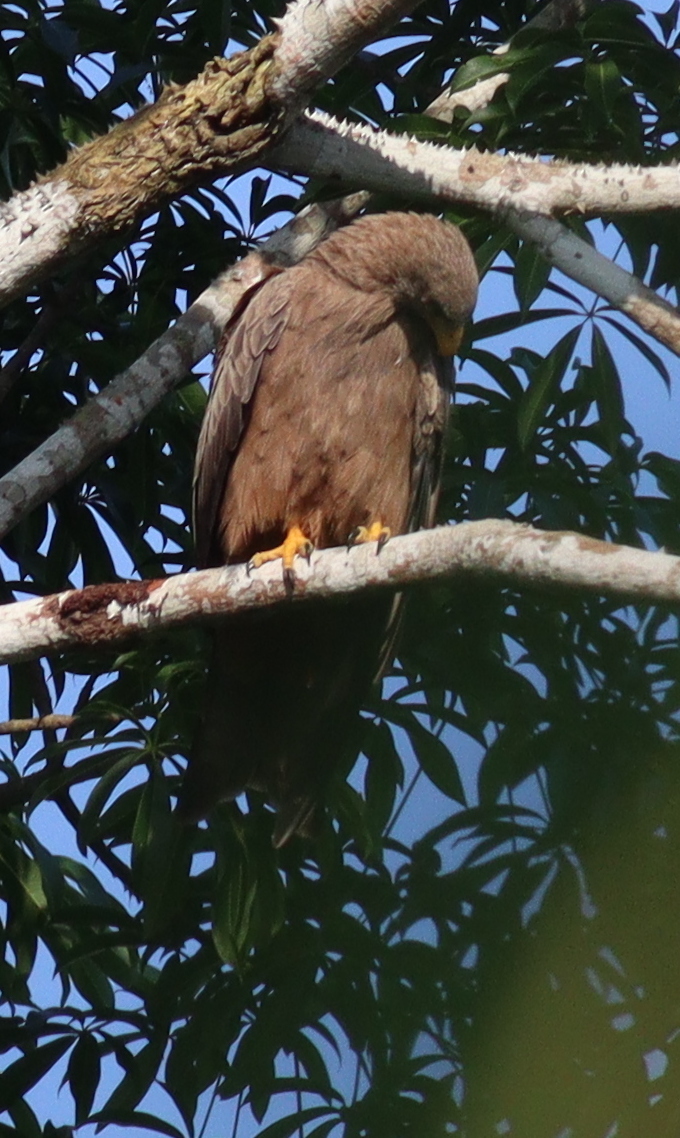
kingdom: Animalia
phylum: Chordata
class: Aves
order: Accipitriformes
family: Accipitridae
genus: Milvus
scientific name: Milvus migrans
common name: Black kite
